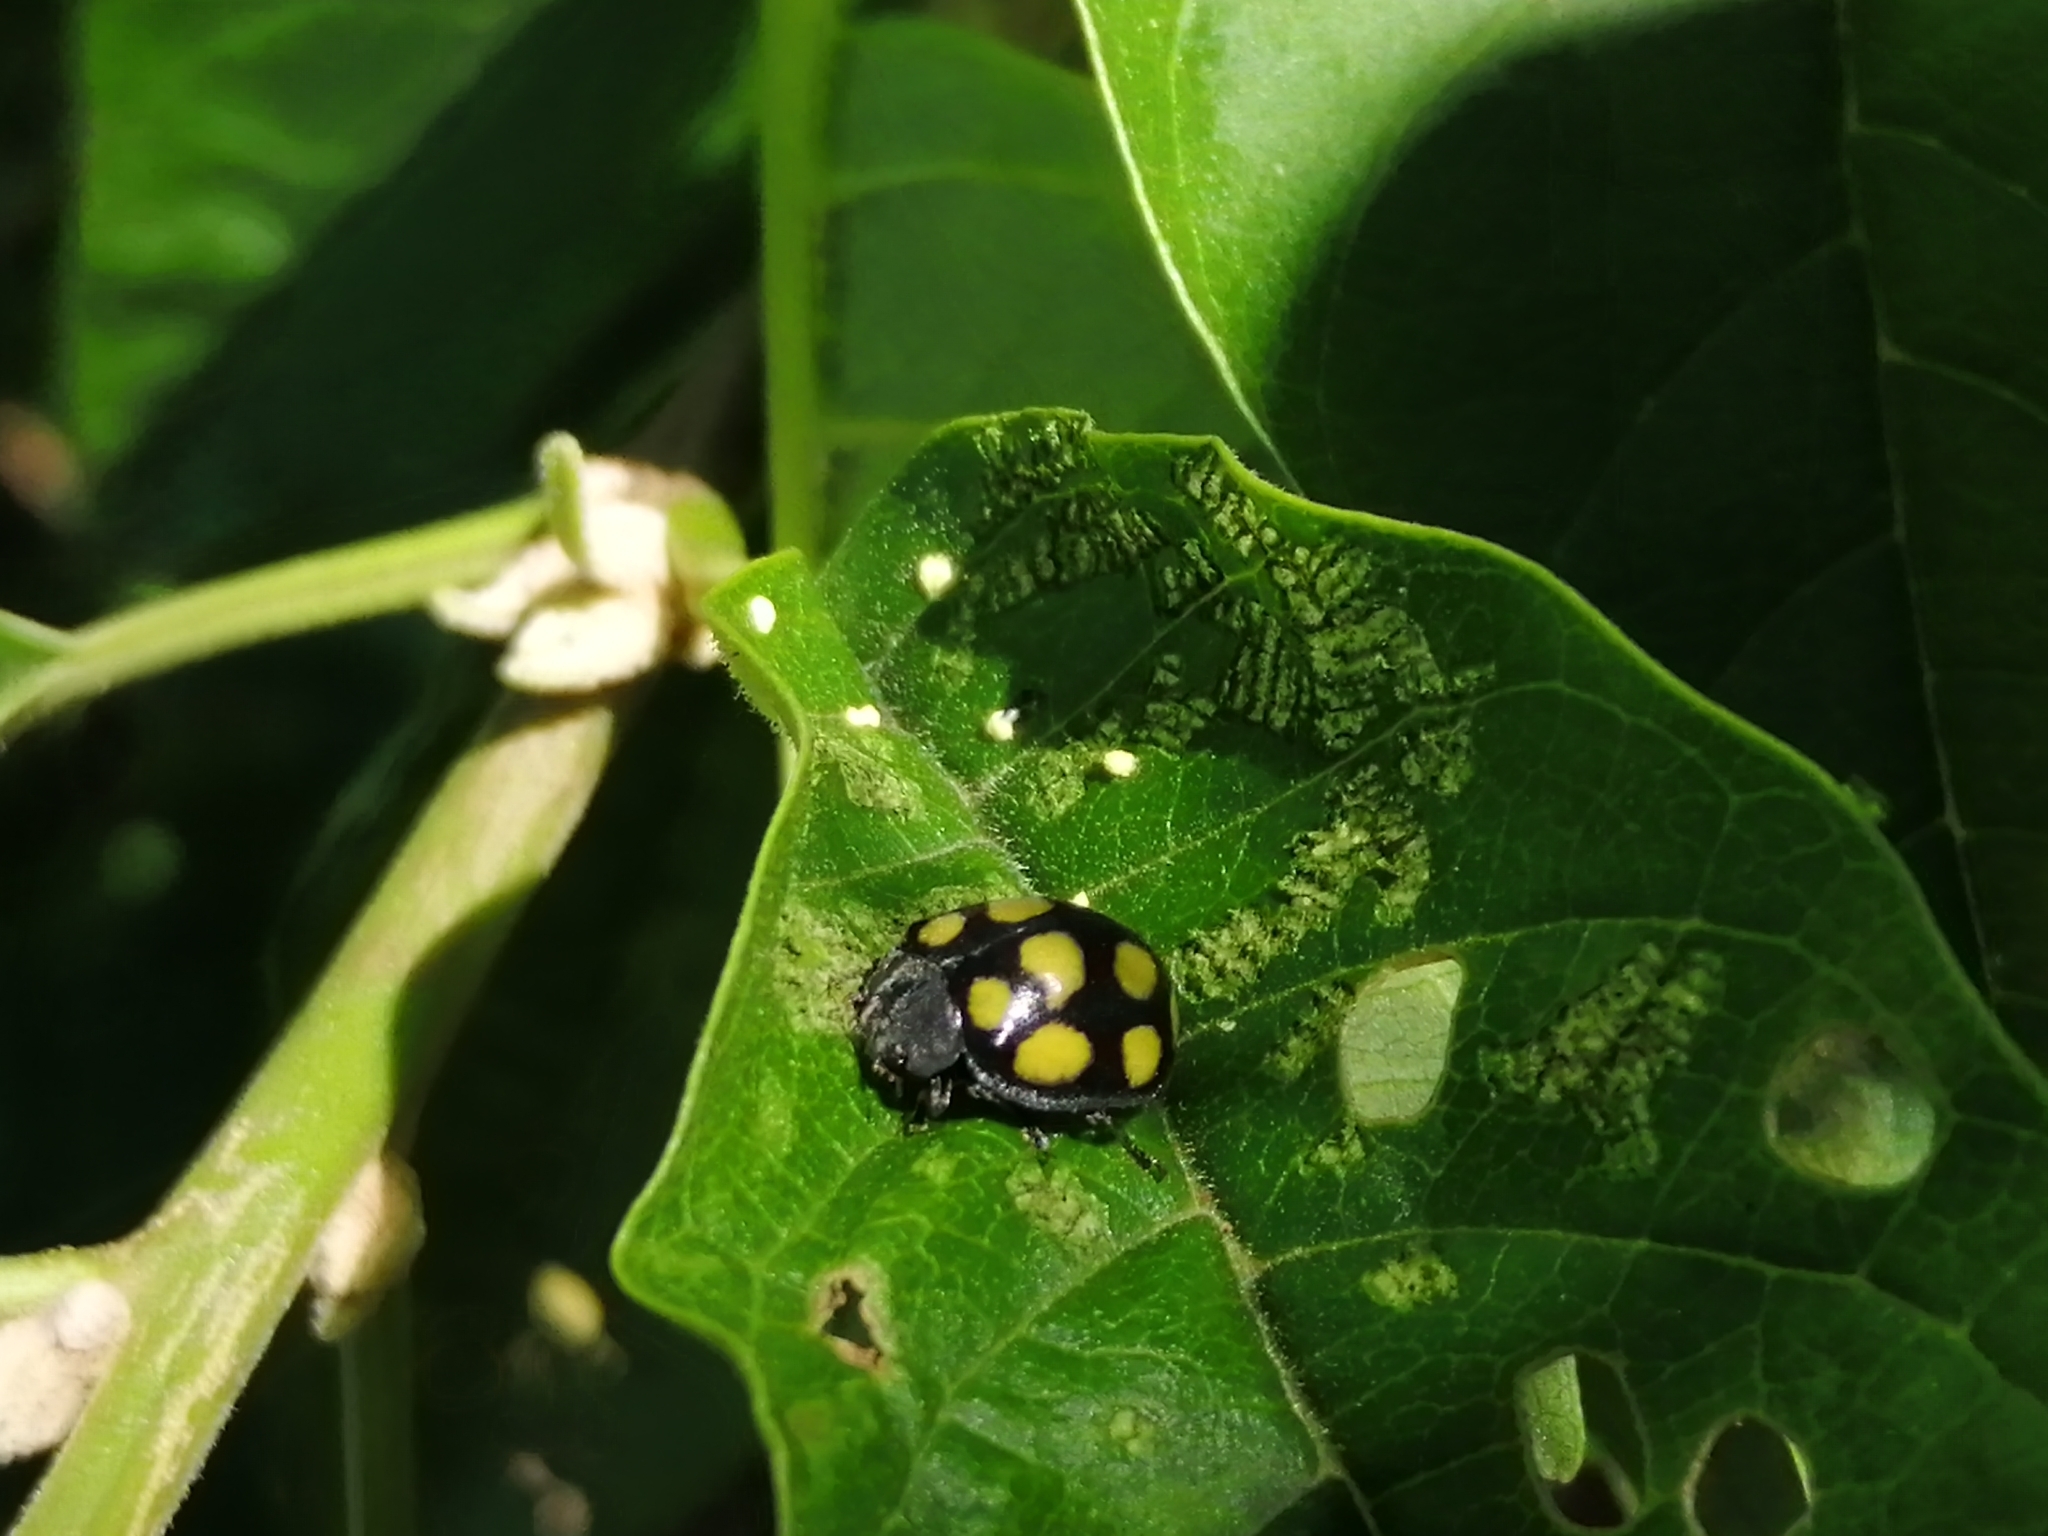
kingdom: Animalia
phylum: Arthropoda
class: Insecta
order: Coleoptera
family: Coccinellidae
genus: Epilachna
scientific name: Epilachna
